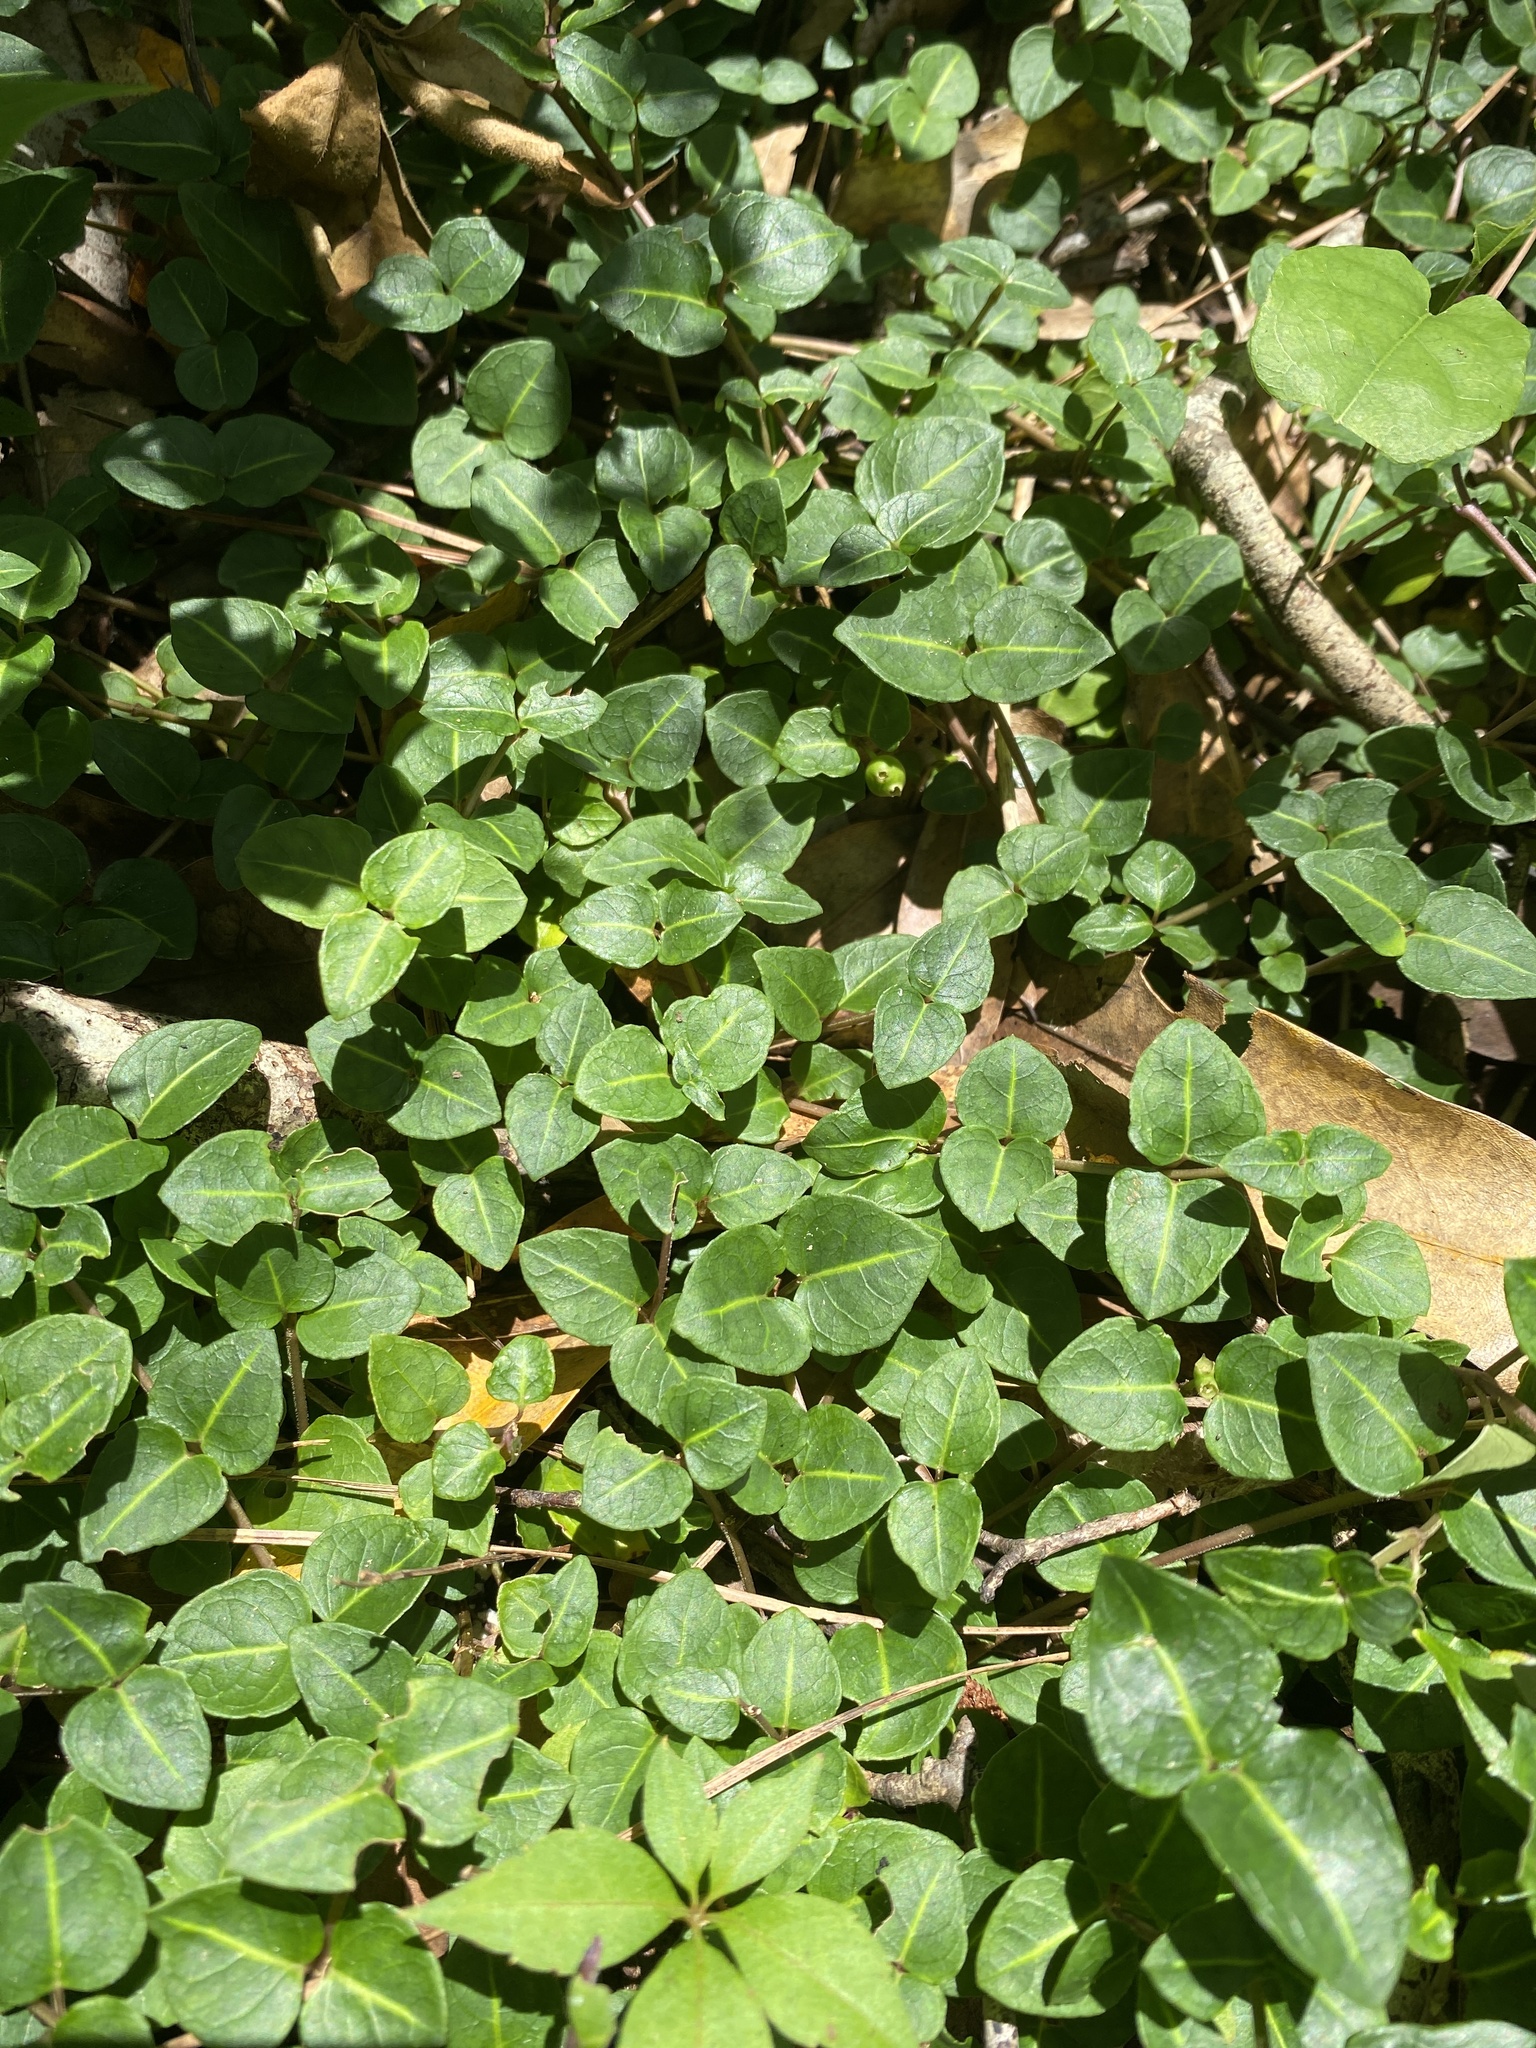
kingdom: Plantae
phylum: Tracheophyta
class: Magnoliopsida
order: Gentianales
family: Rubiaceae
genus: Mitchella
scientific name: Mitchella repens
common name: Partridge-berry
